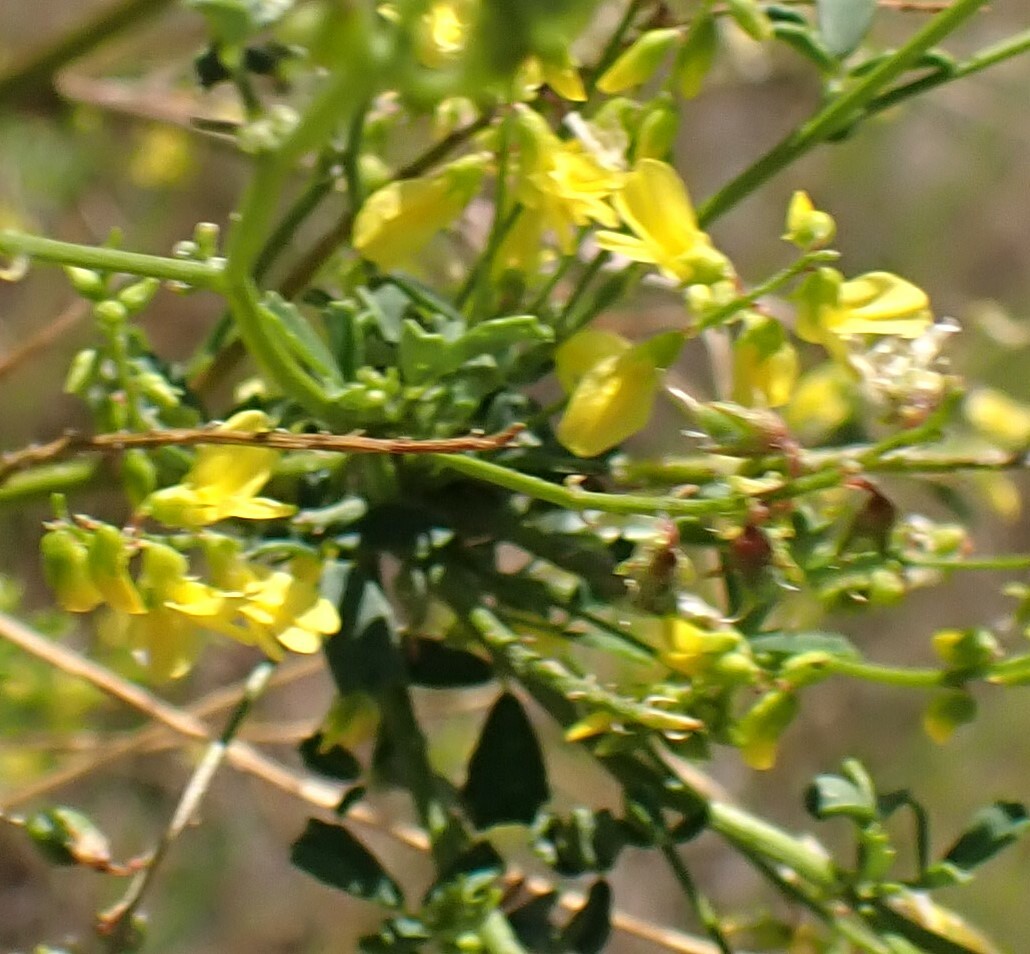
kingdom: Plantae
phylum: Tracheophyta
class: Magnoliopsida
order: Fabales
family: Fabaceae
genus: Melilotus
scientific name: Melilotus officinalis
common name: Sweetclover
